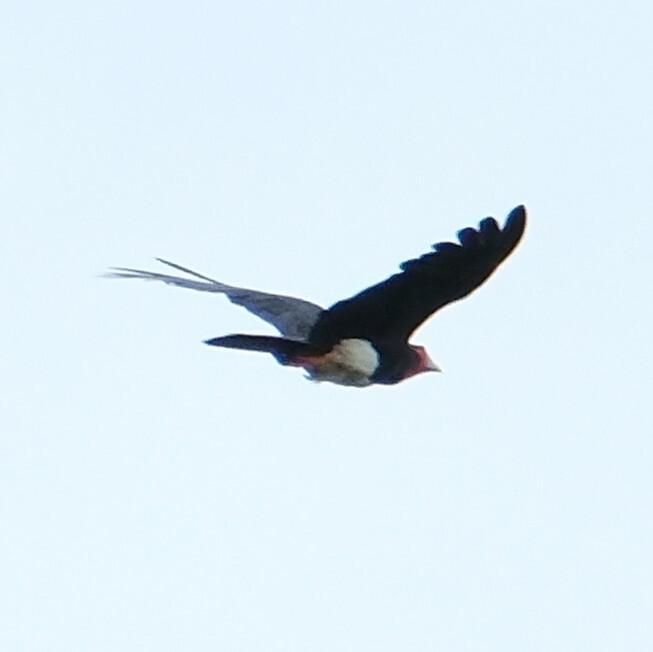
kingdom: Animalia
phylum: Chordata
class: Aves
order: Falconiformes
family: Falconidae
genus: Ibycter
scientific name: Ibycter americanus
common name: Red-throated caracara
